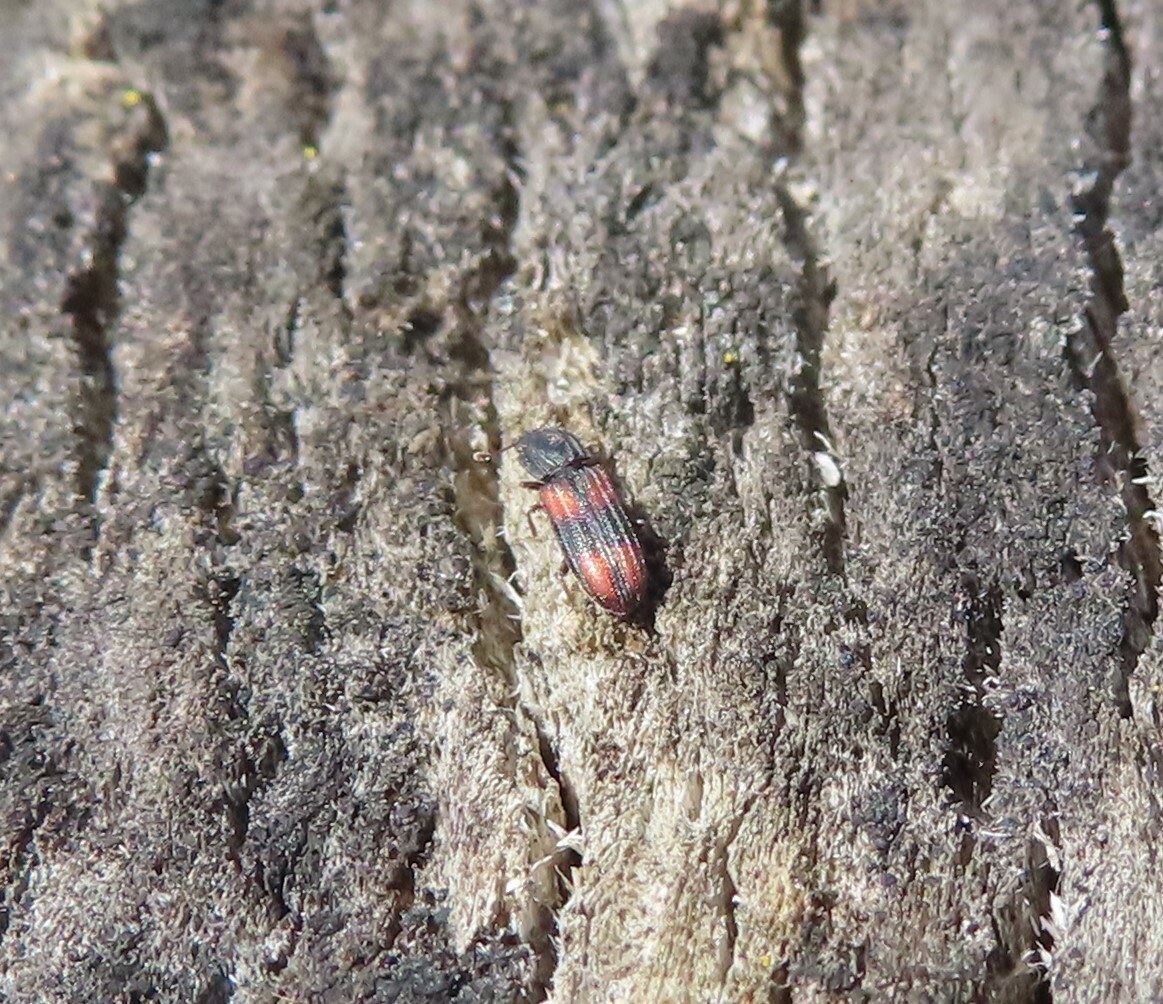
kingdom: Animalia
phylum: Arthropoda
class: Insecta
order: Coleoptera
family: Zopheridae
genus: Bitoma
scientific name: Bitoma crenata
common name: Bark beetle
